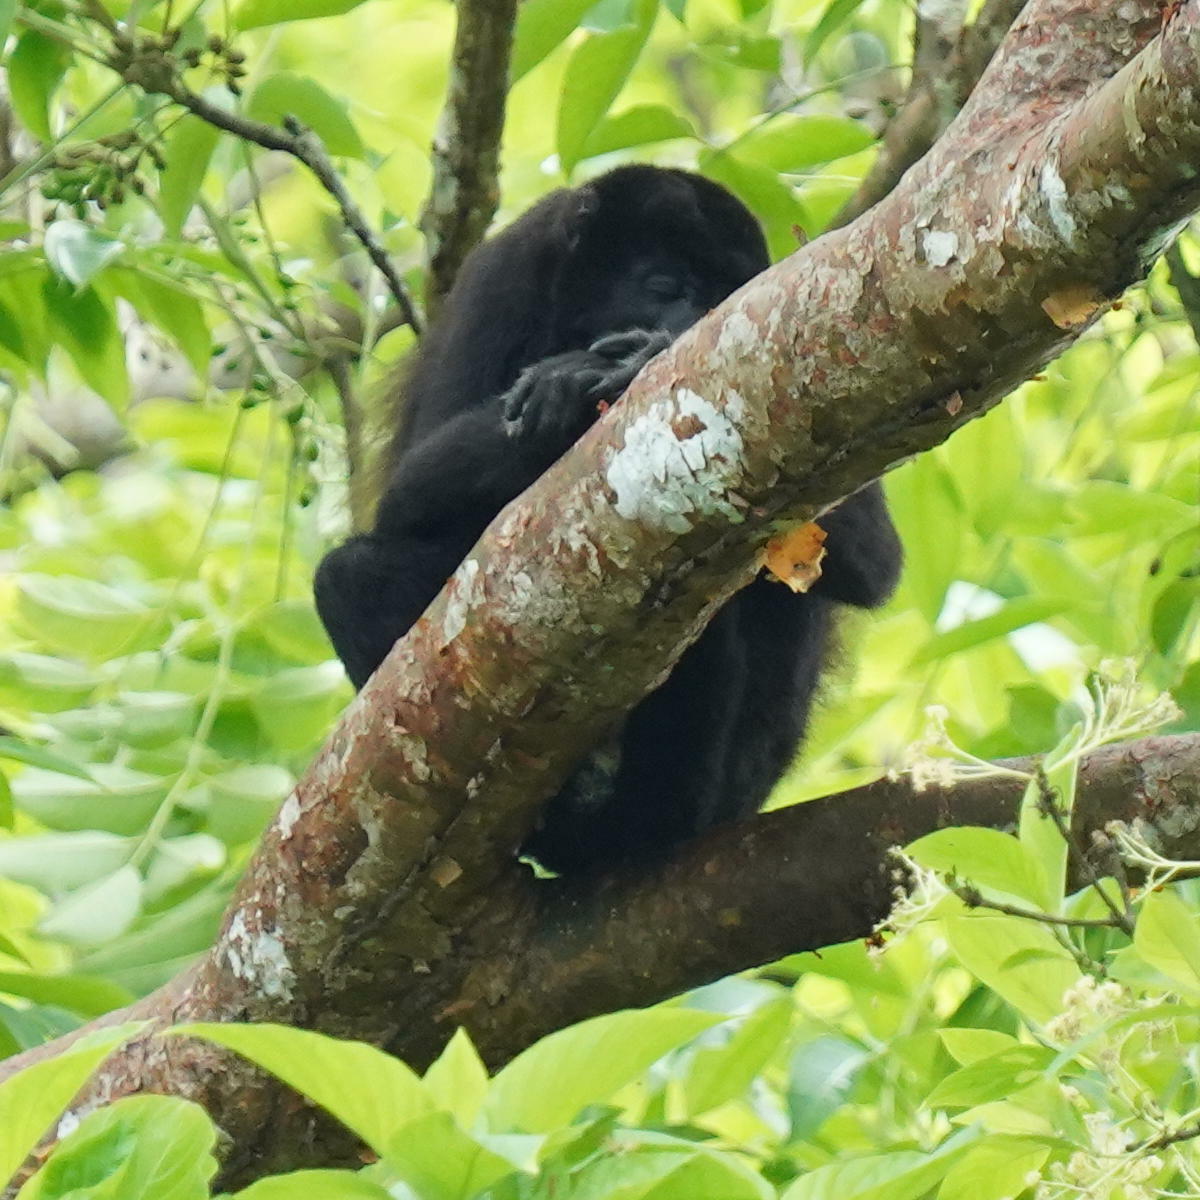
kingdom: Animalia
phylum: Chordata
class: Mammalia
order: Primates
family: Atelidae
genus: Alouatta
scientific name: Alouatta palliata
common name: Mantled howler
